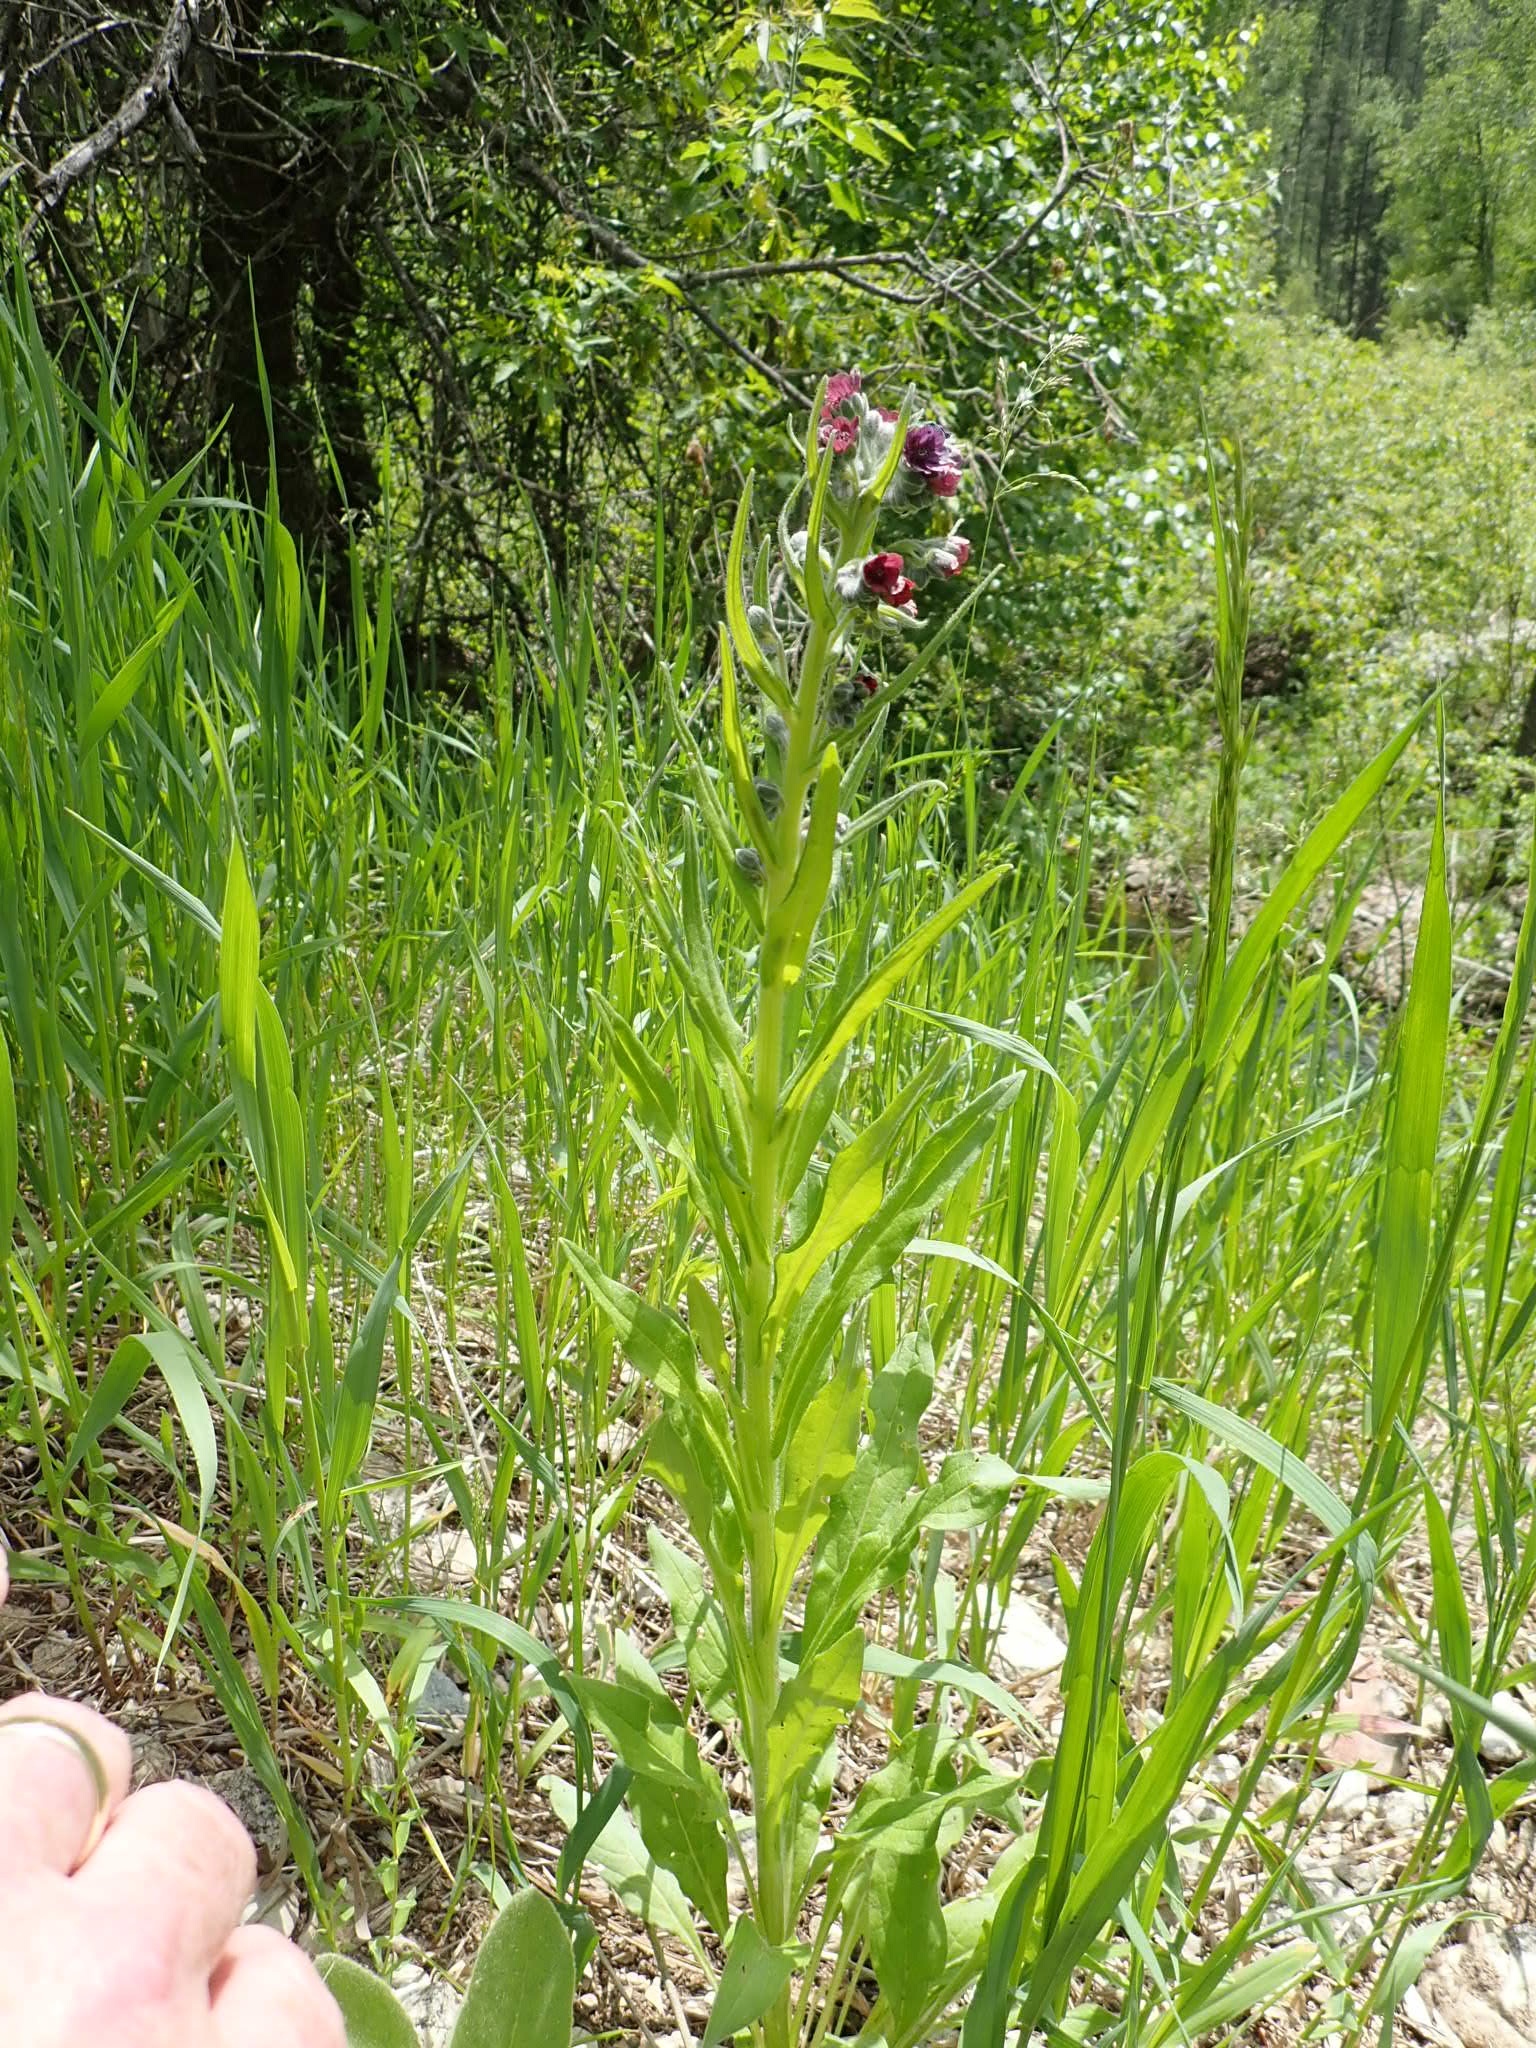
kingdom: Plantae
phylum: Tracheophyta
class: Magnoliopsida
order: Boraginales
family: Boraginaceae
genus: Cynoglossum
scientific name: Cynoglossum officinale
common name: Hound's-tongue
